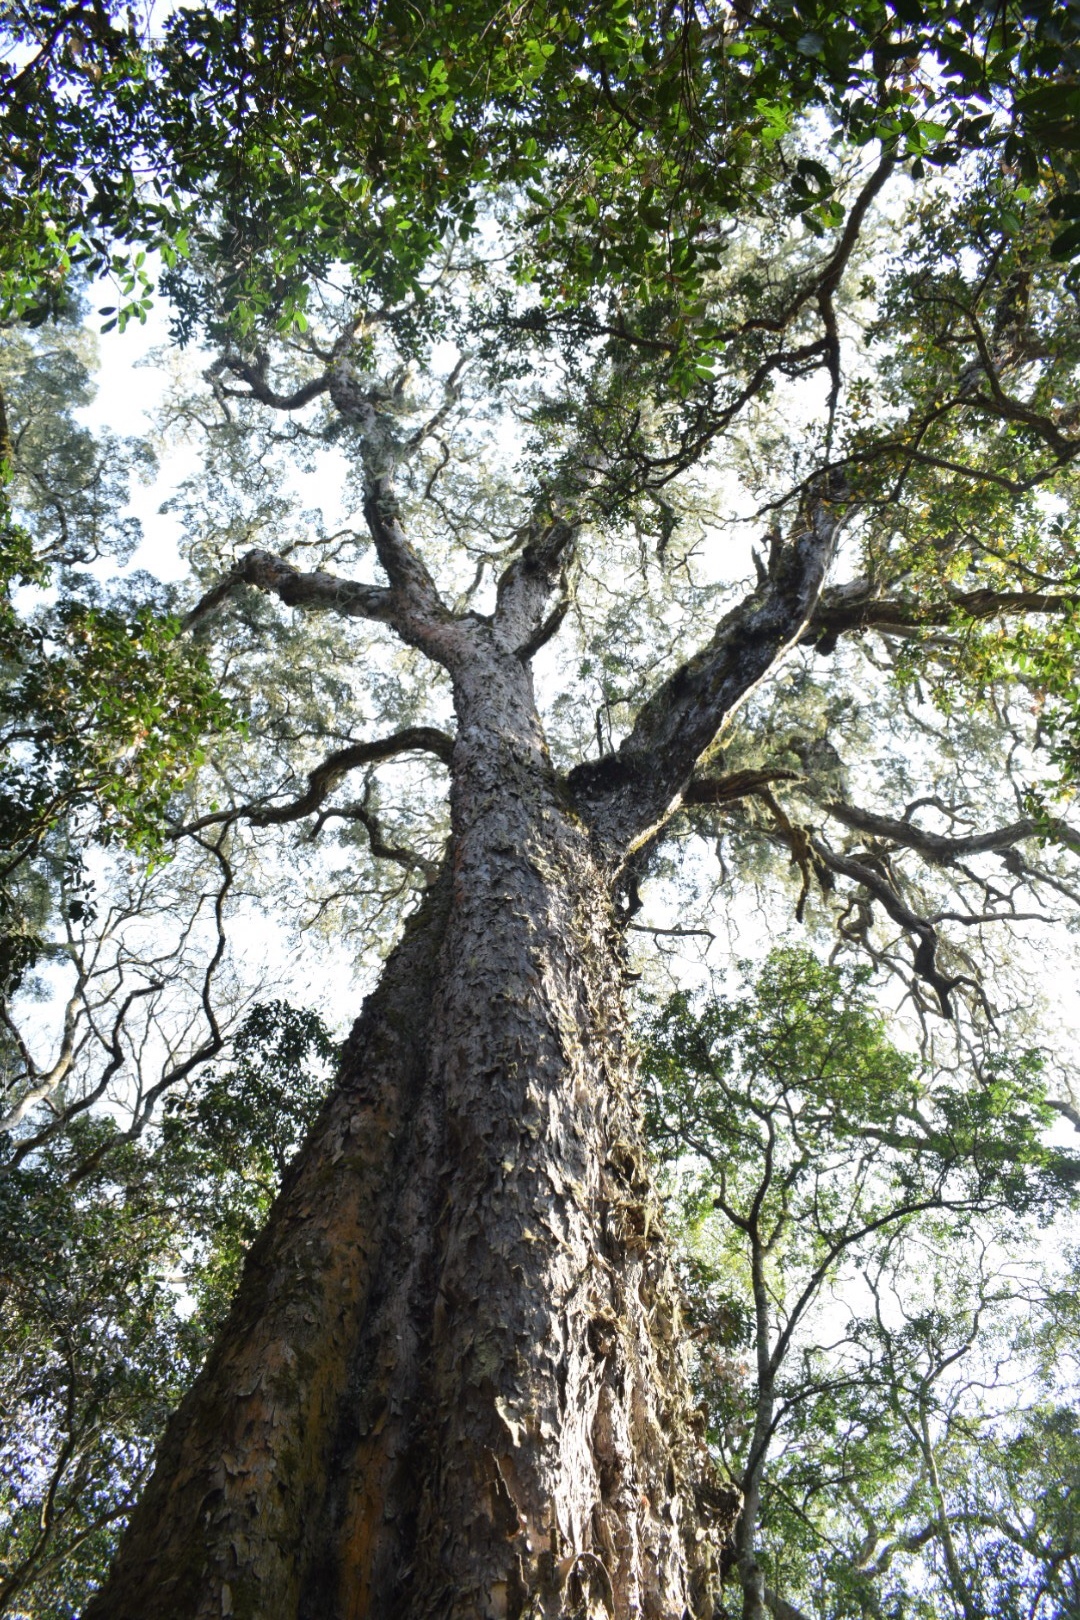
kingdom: Plantae
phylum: Tracheophyta
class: Pinopsida
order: Pinales
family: Podocarpaceae
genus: Afrocarpus
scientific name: Afrocarpus falcatus
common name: Bastard yellowwood
